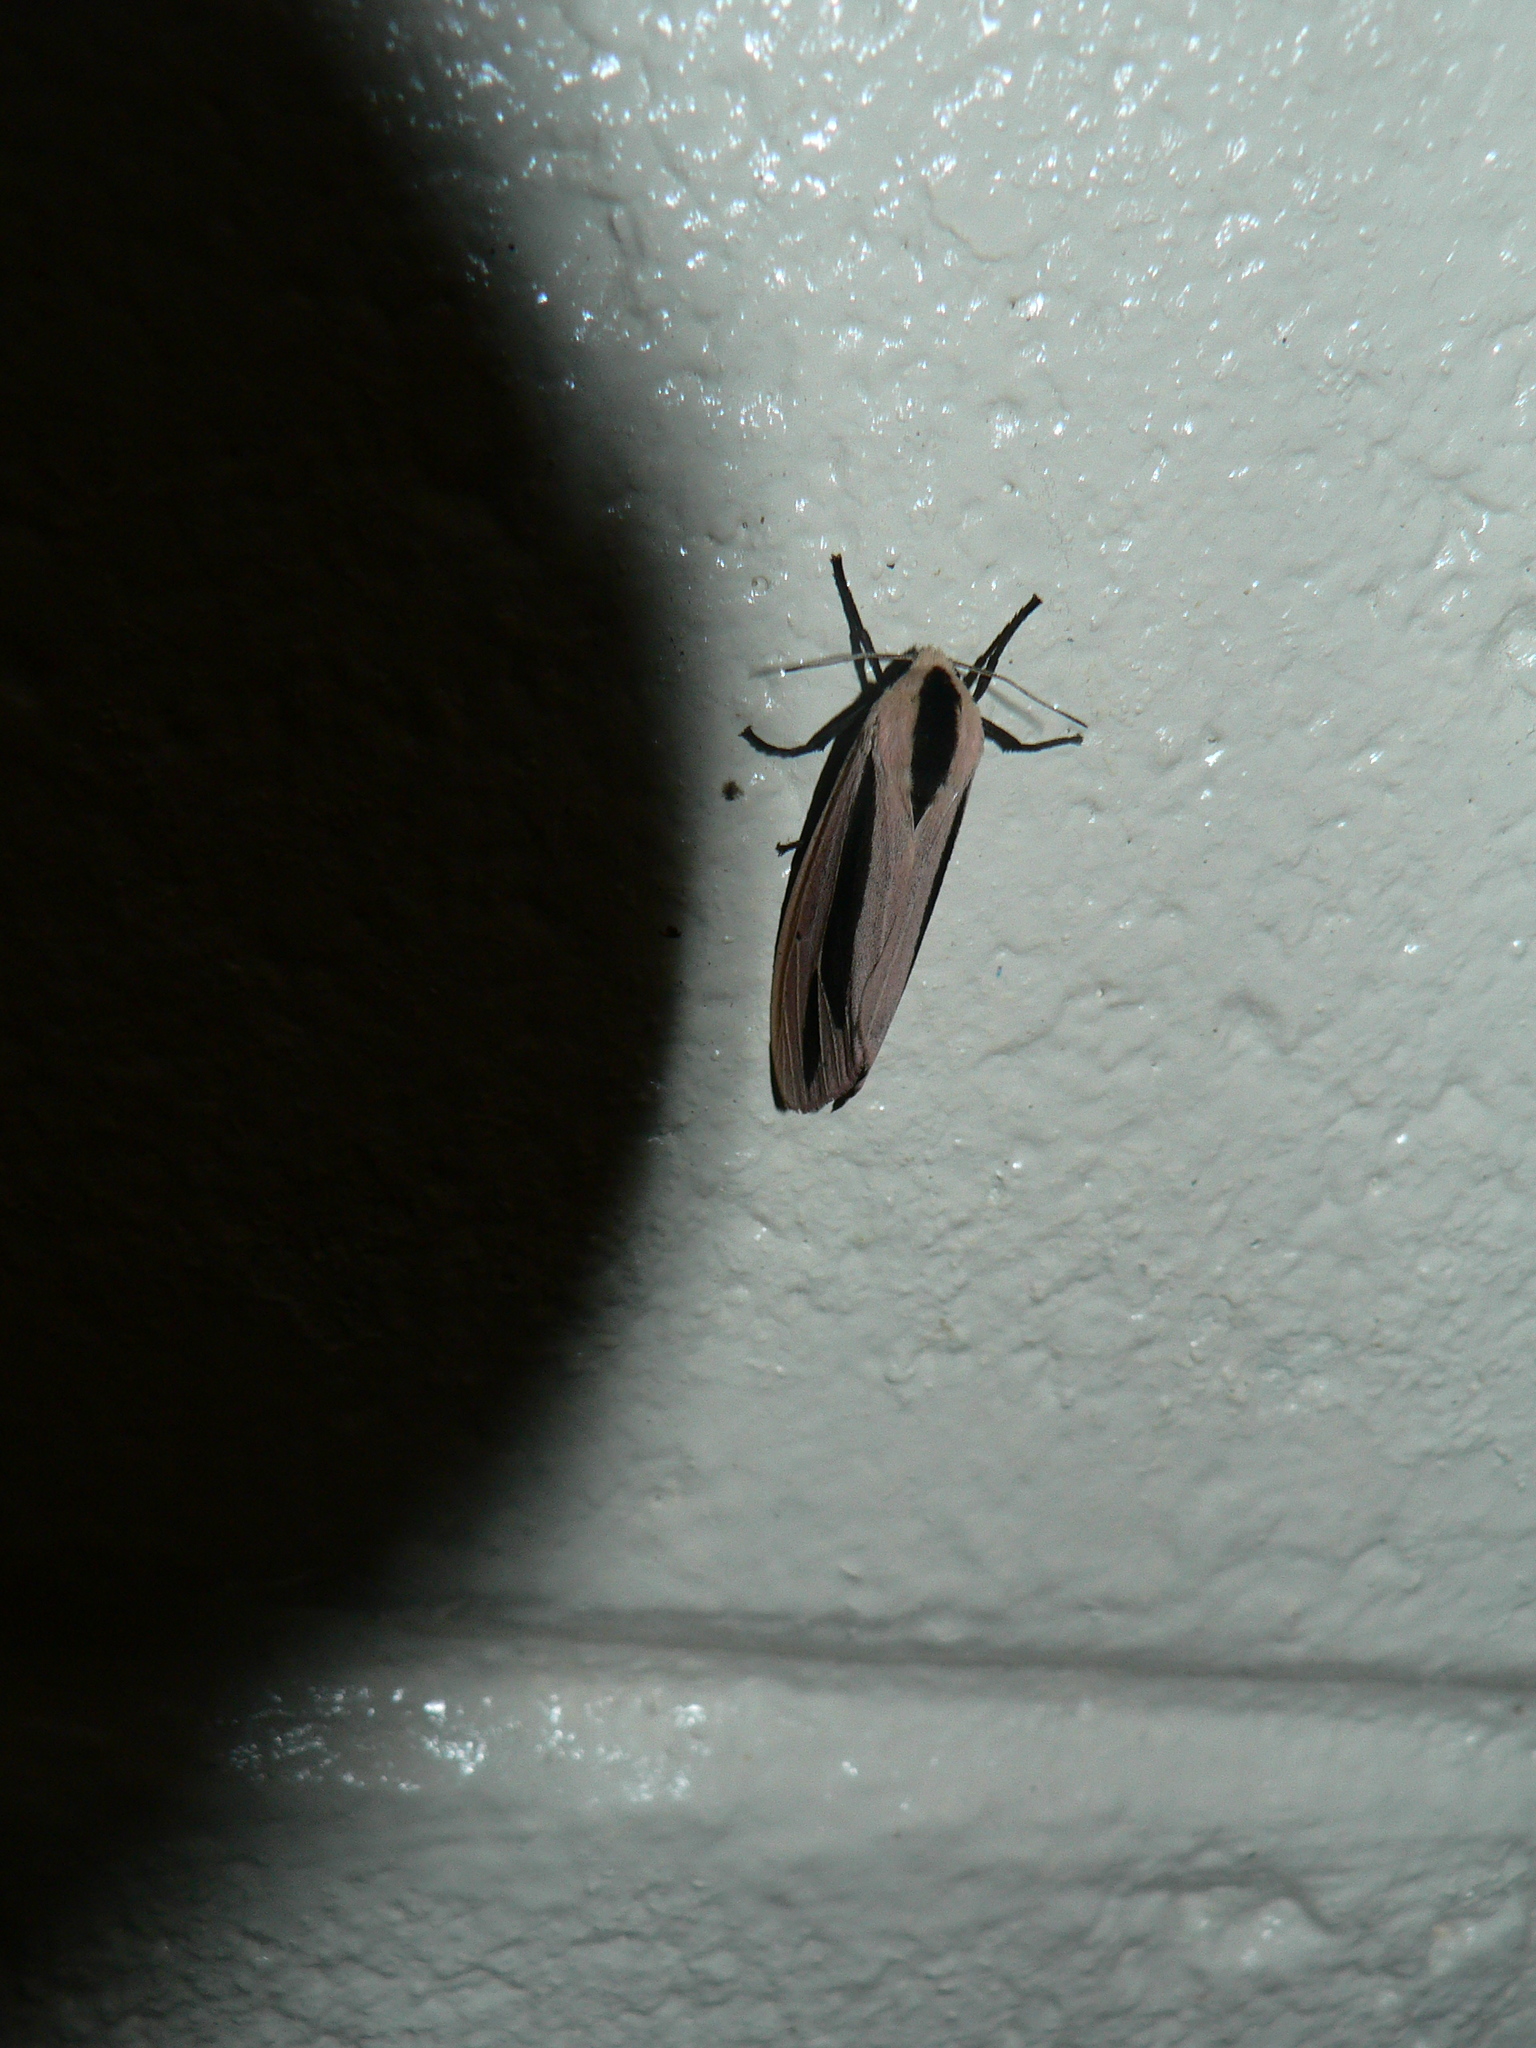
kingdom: Animalia
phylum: Arthropoda
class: Insecta
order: Lepidoptera
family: Erebidae
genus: Creatonotos
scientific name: Creatonotos gangis
